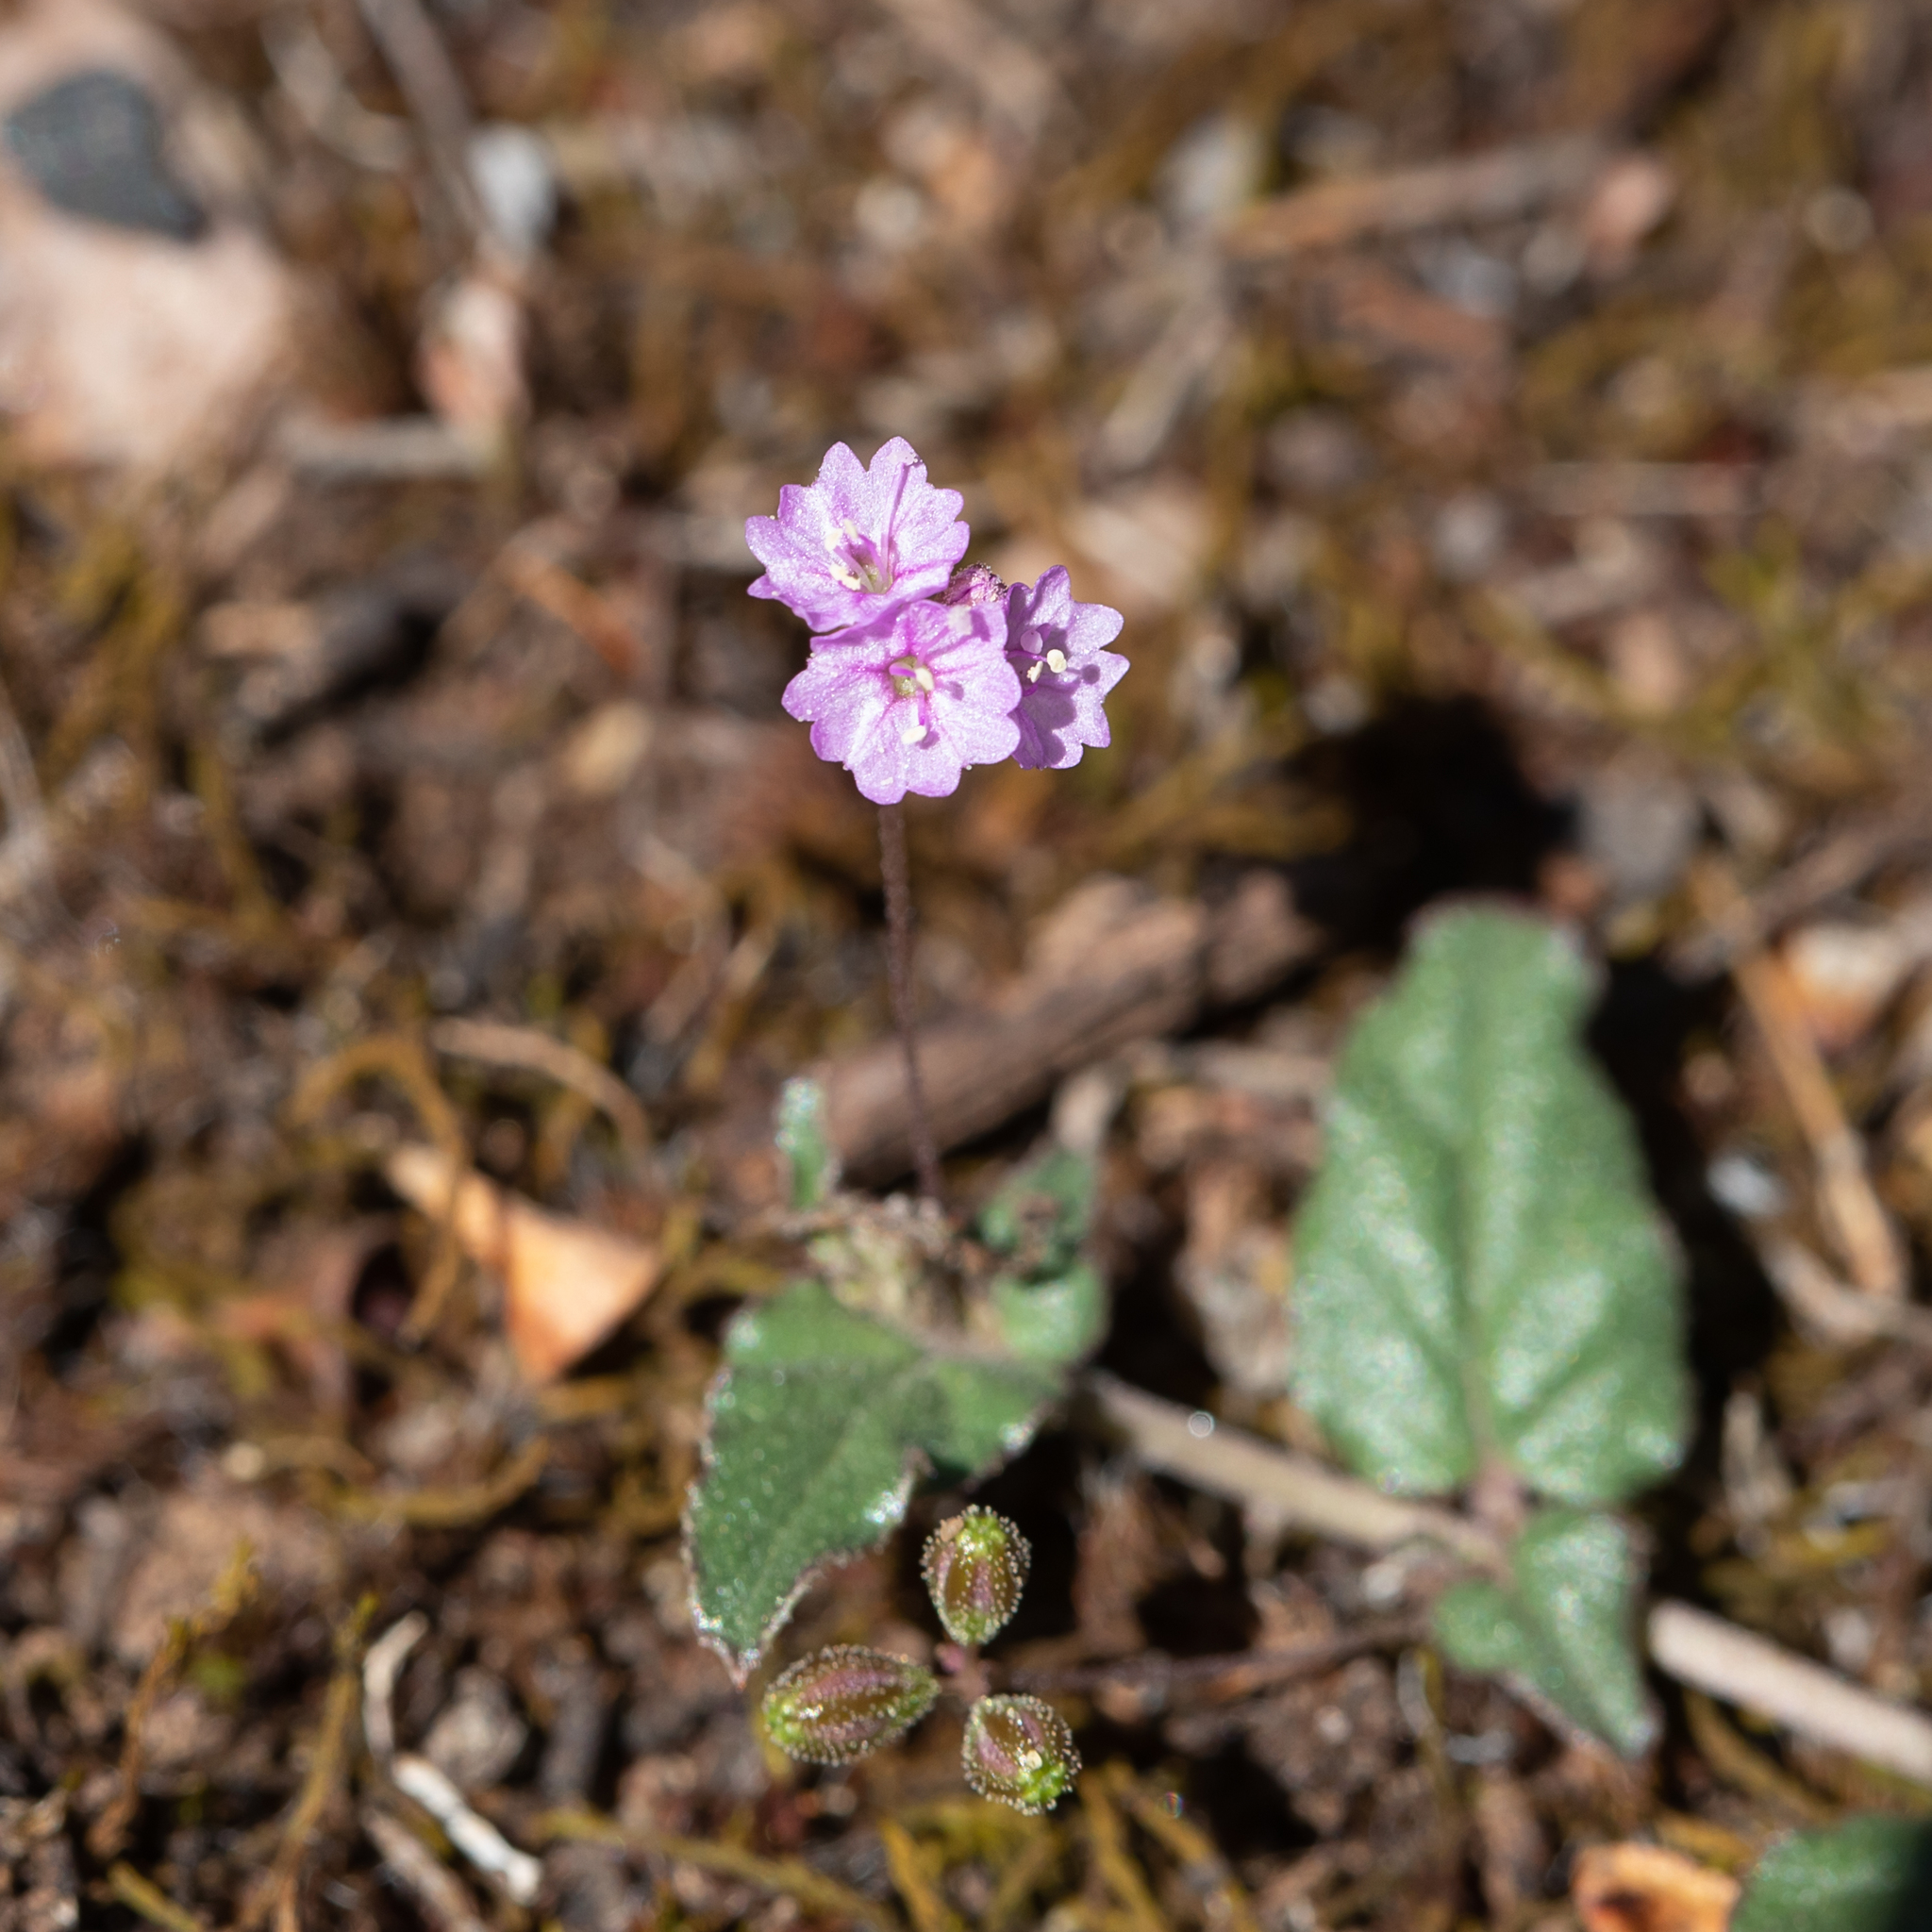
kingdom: Plantae
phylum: Tracheophyta
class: Magnoliopsida
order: Caryophyllales
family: Nyctaginaceae
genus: Boerhavia
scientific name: Boerhavia dominii
